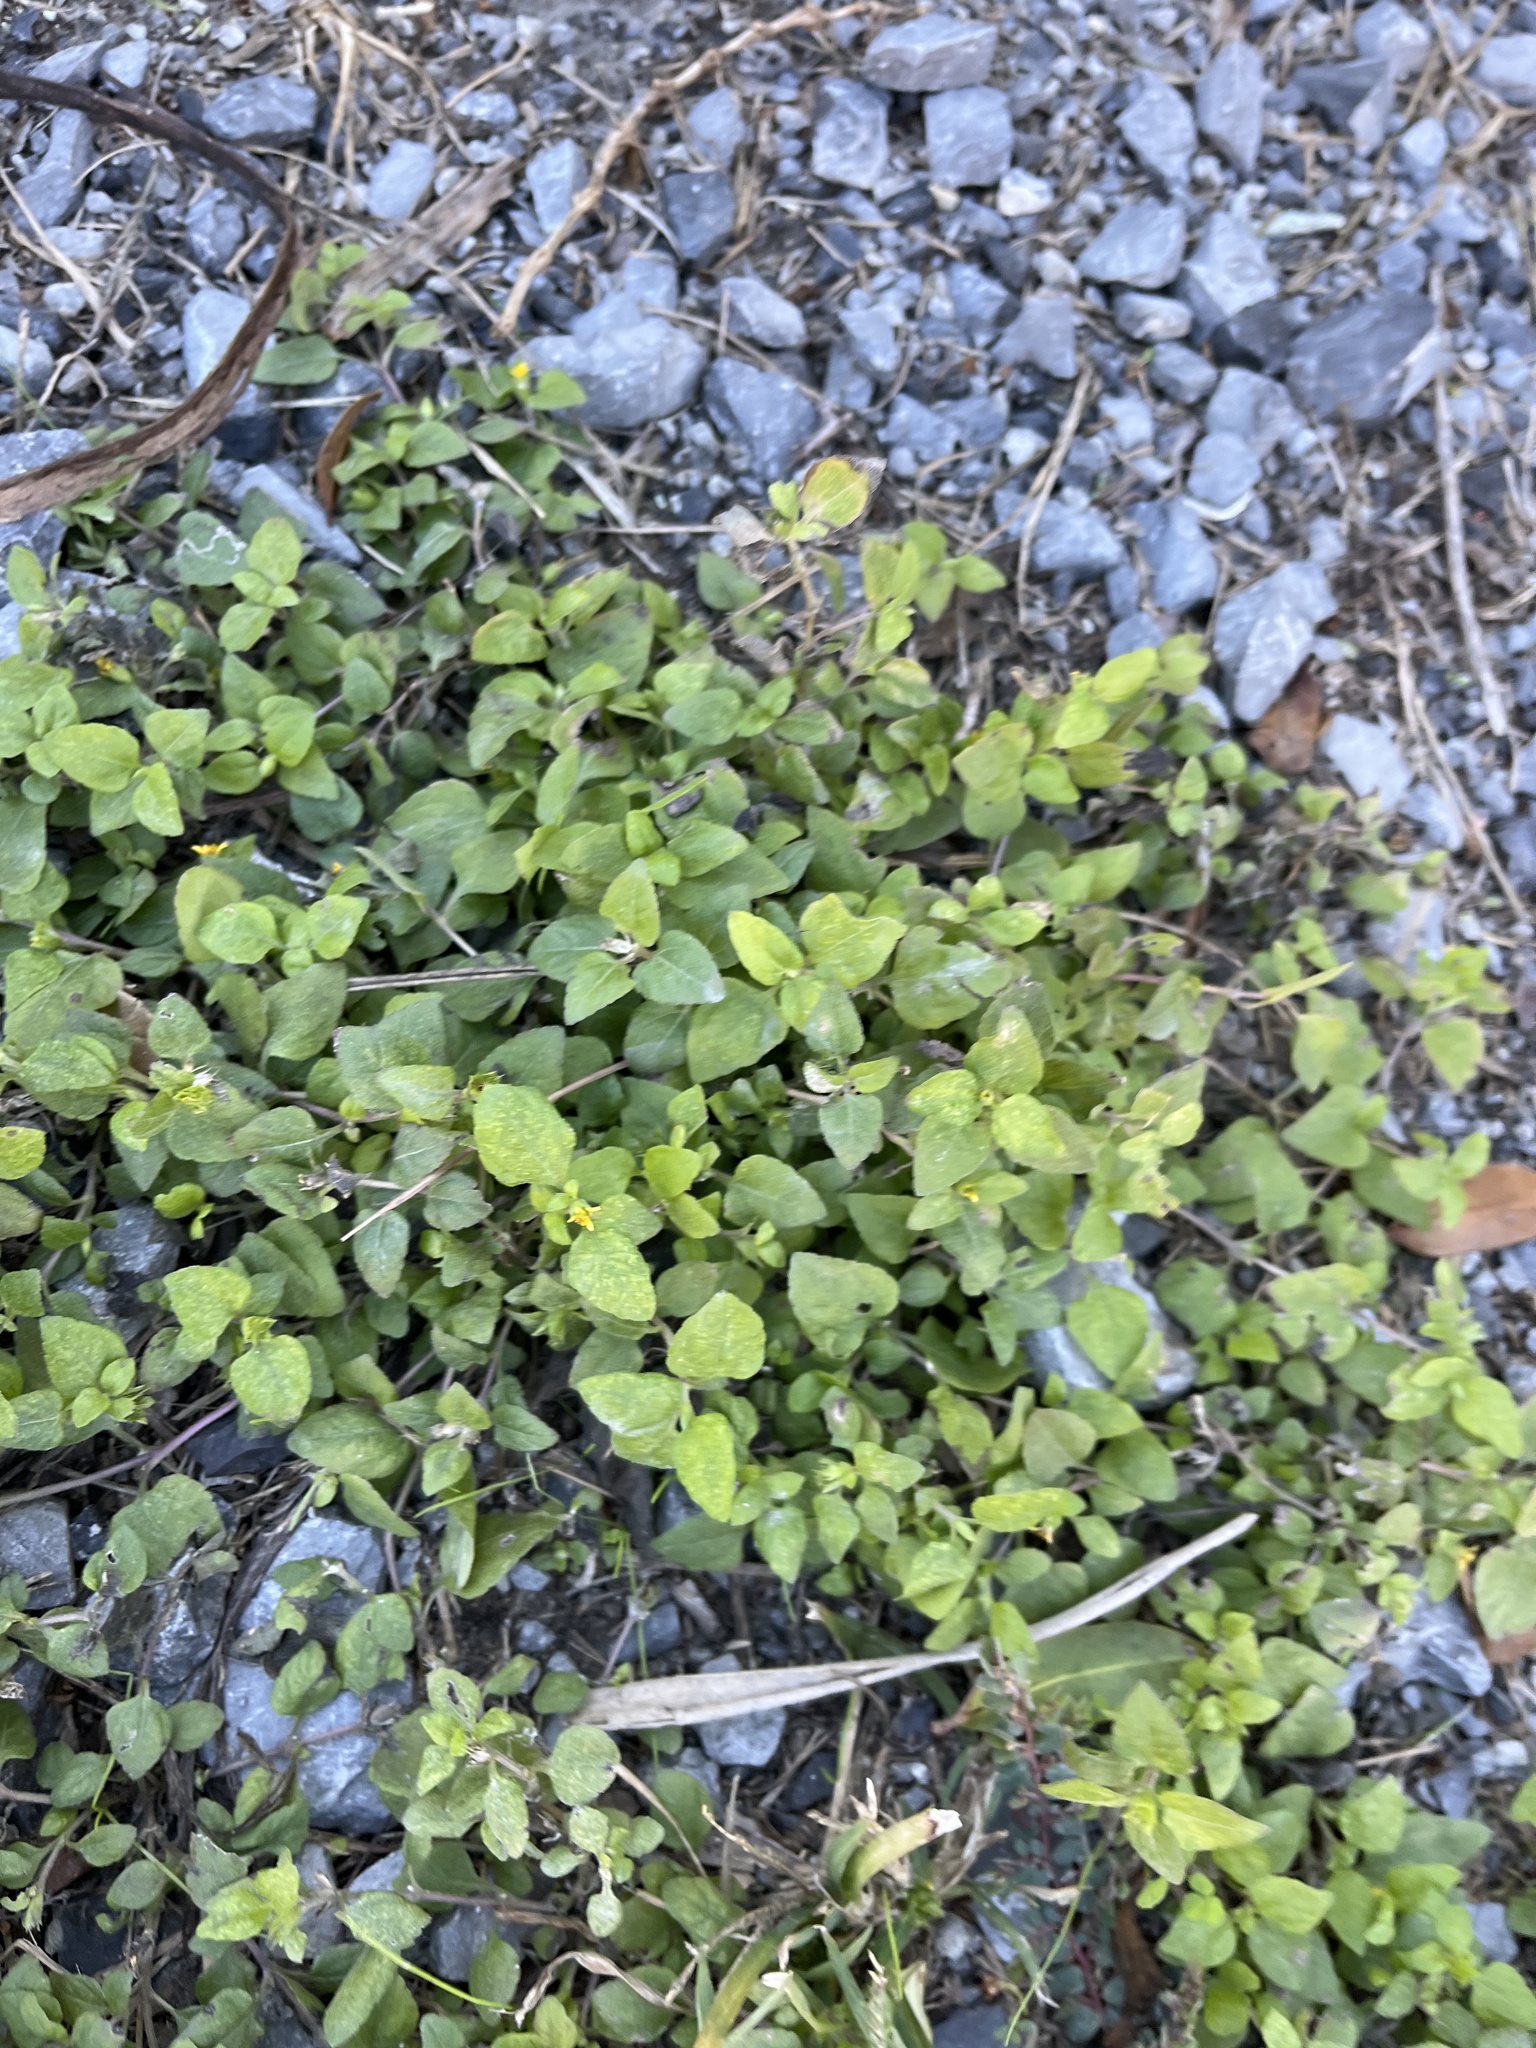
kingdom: Plantae
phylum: Tracheophyta
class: Magnoliopsida
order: Asterales
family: Asteraceae
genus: Calyptocarpus
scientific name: Calyptocarpus vialis
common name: Straggler daisy
